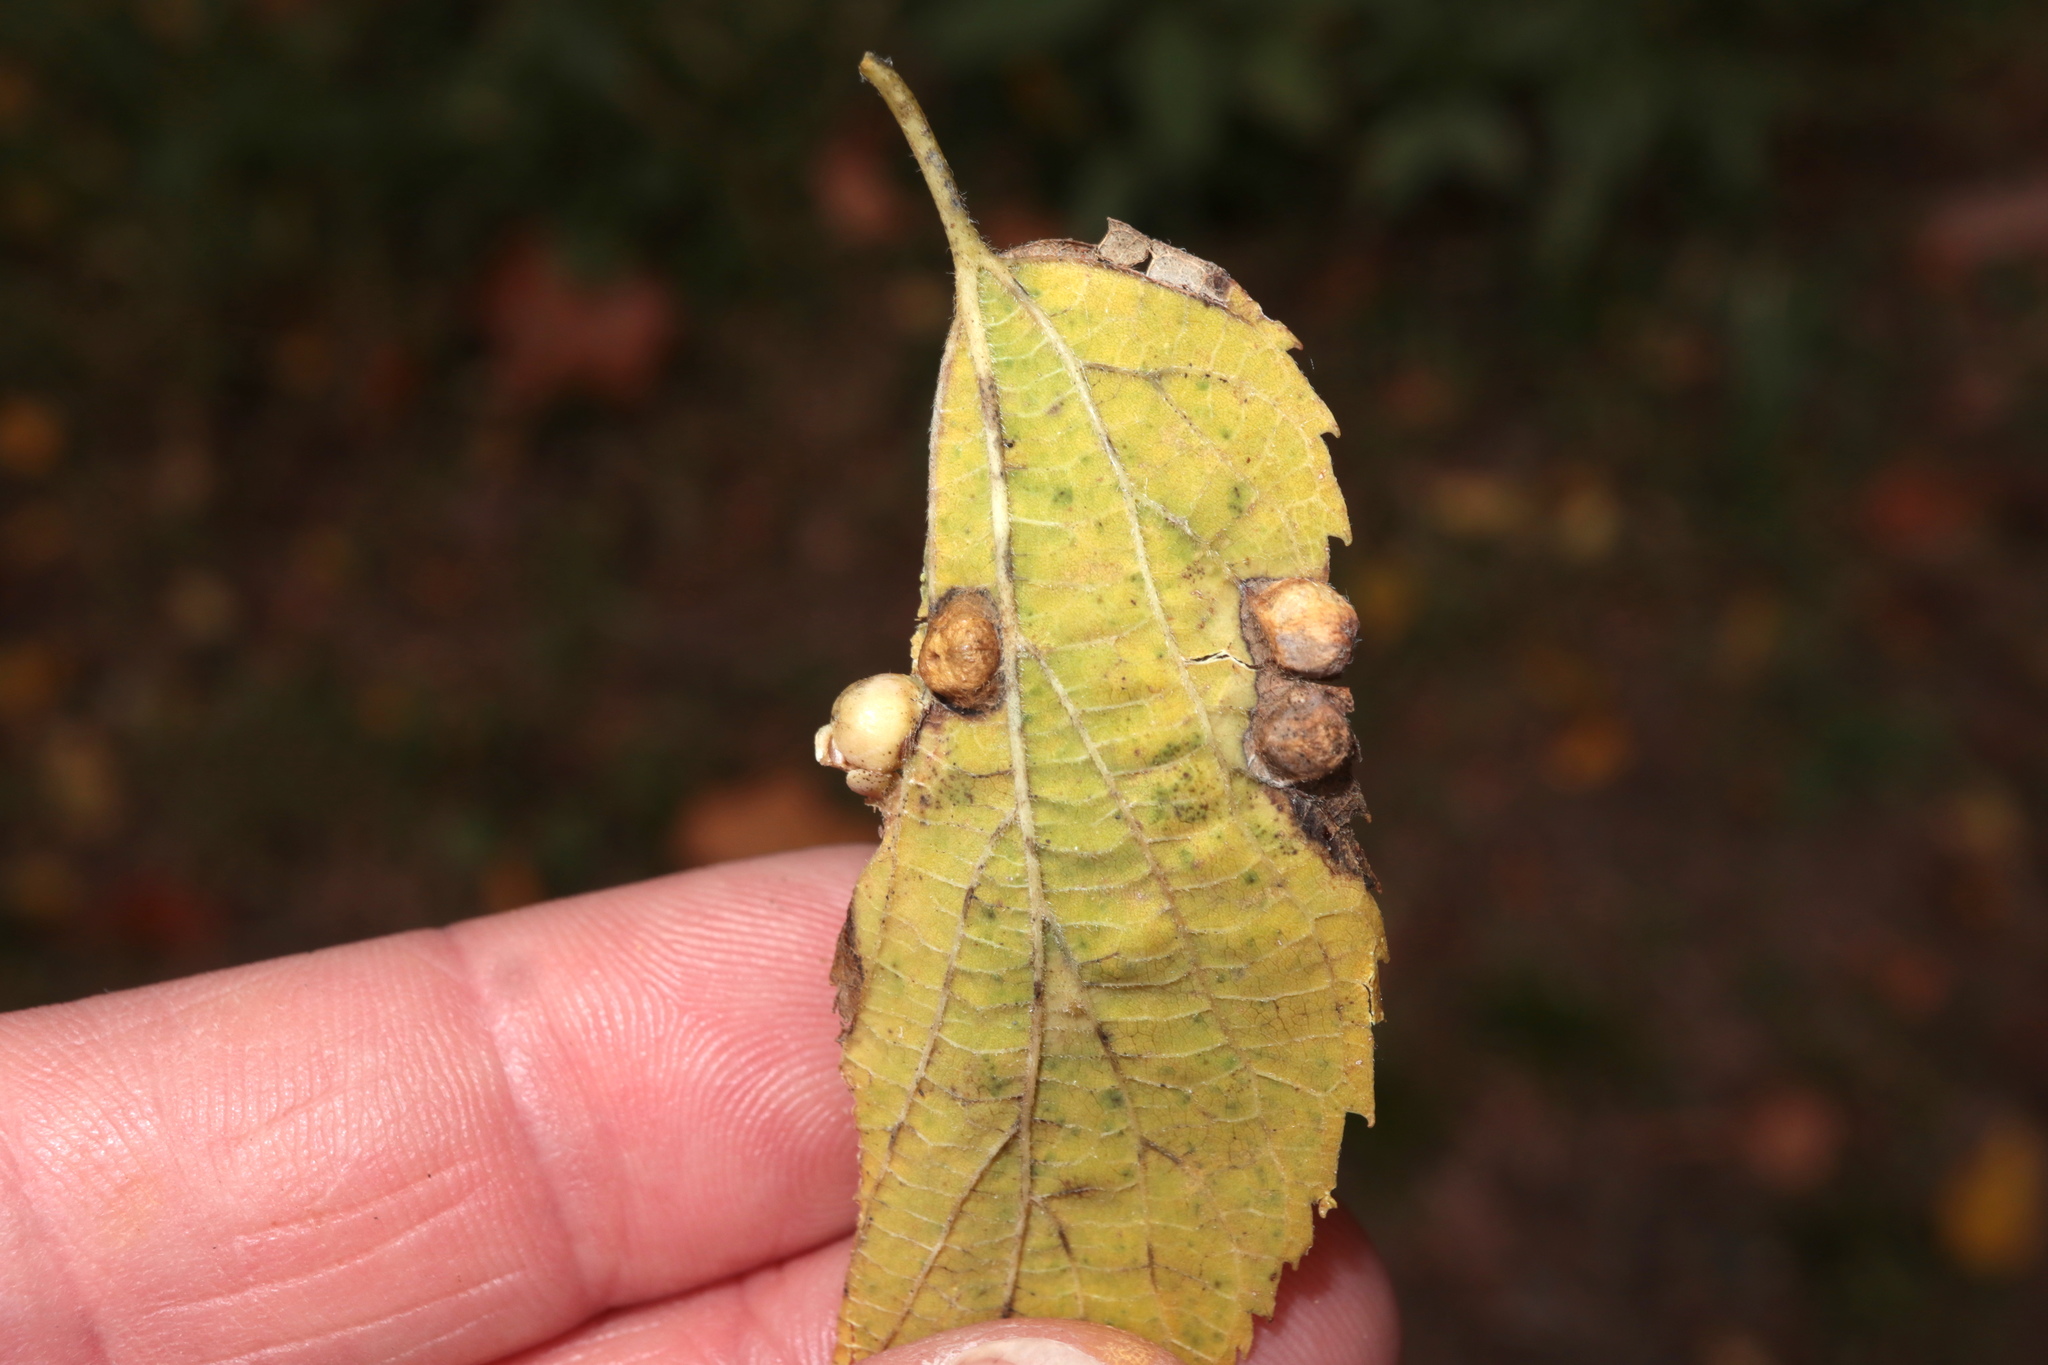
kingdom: Animalia
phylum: Arthropoda
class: Insecta
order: Hemiptera
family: Aphalaridae
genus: Pachypsylla
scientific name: Pachypsylla celtidisumbilicus
